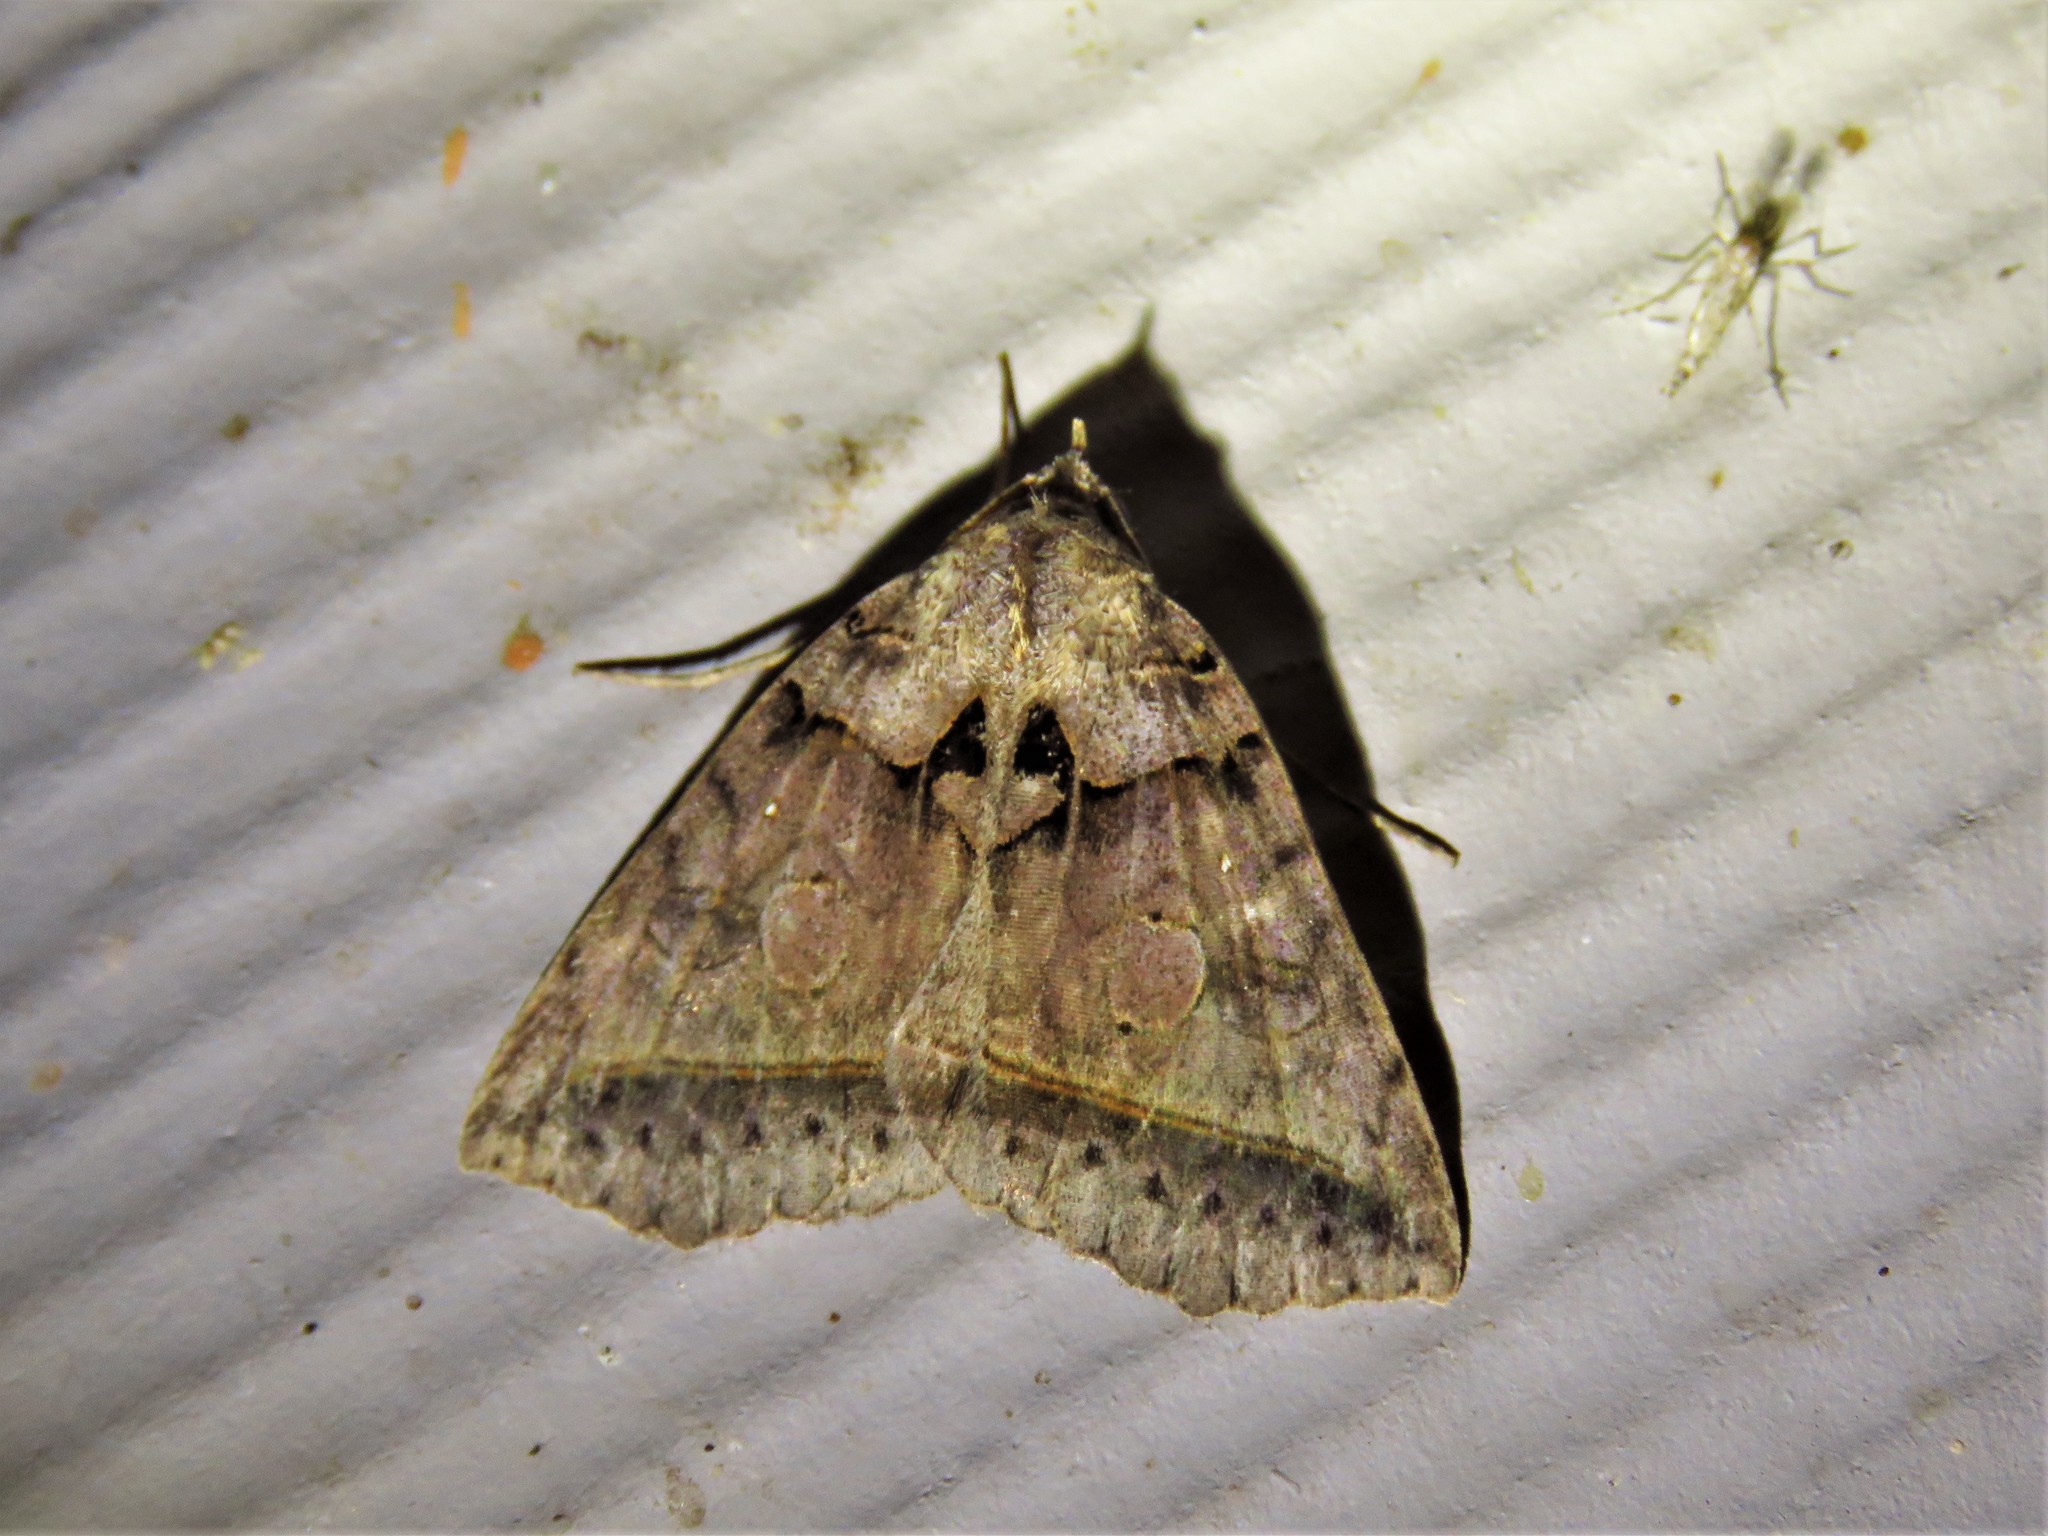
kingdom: Animalia
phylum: Arthropoda
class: Insecta
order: Lepidoptera
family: Erebidae
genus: Celiptera
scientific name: Celiptera frustulum
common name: Black bit moth
